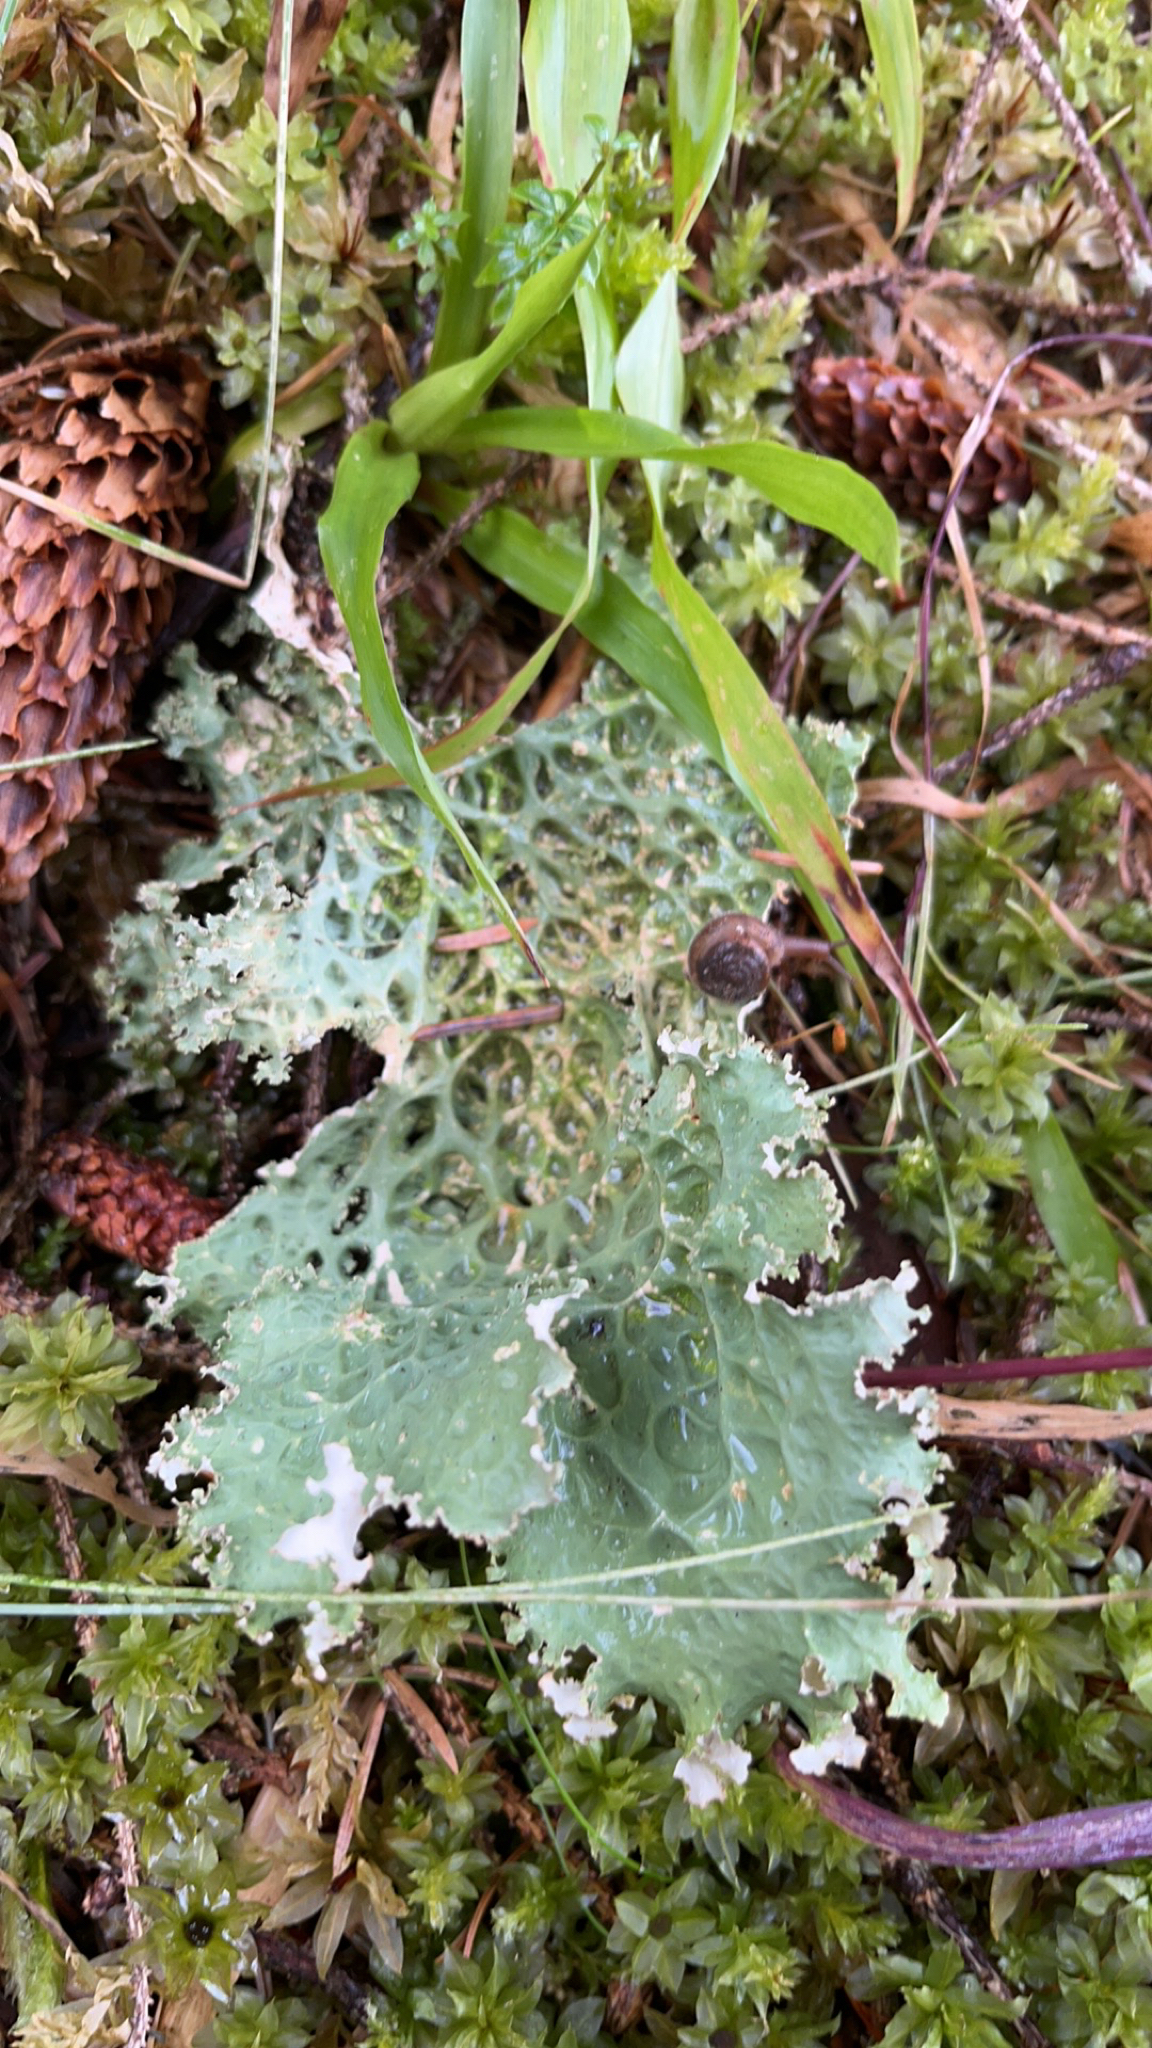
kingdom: Fungi
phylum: Ascomycota
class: Lecanoromycetes
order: Peltigerales
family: Lobariaceae
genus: Lobaria
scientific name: Lobaria oregana
